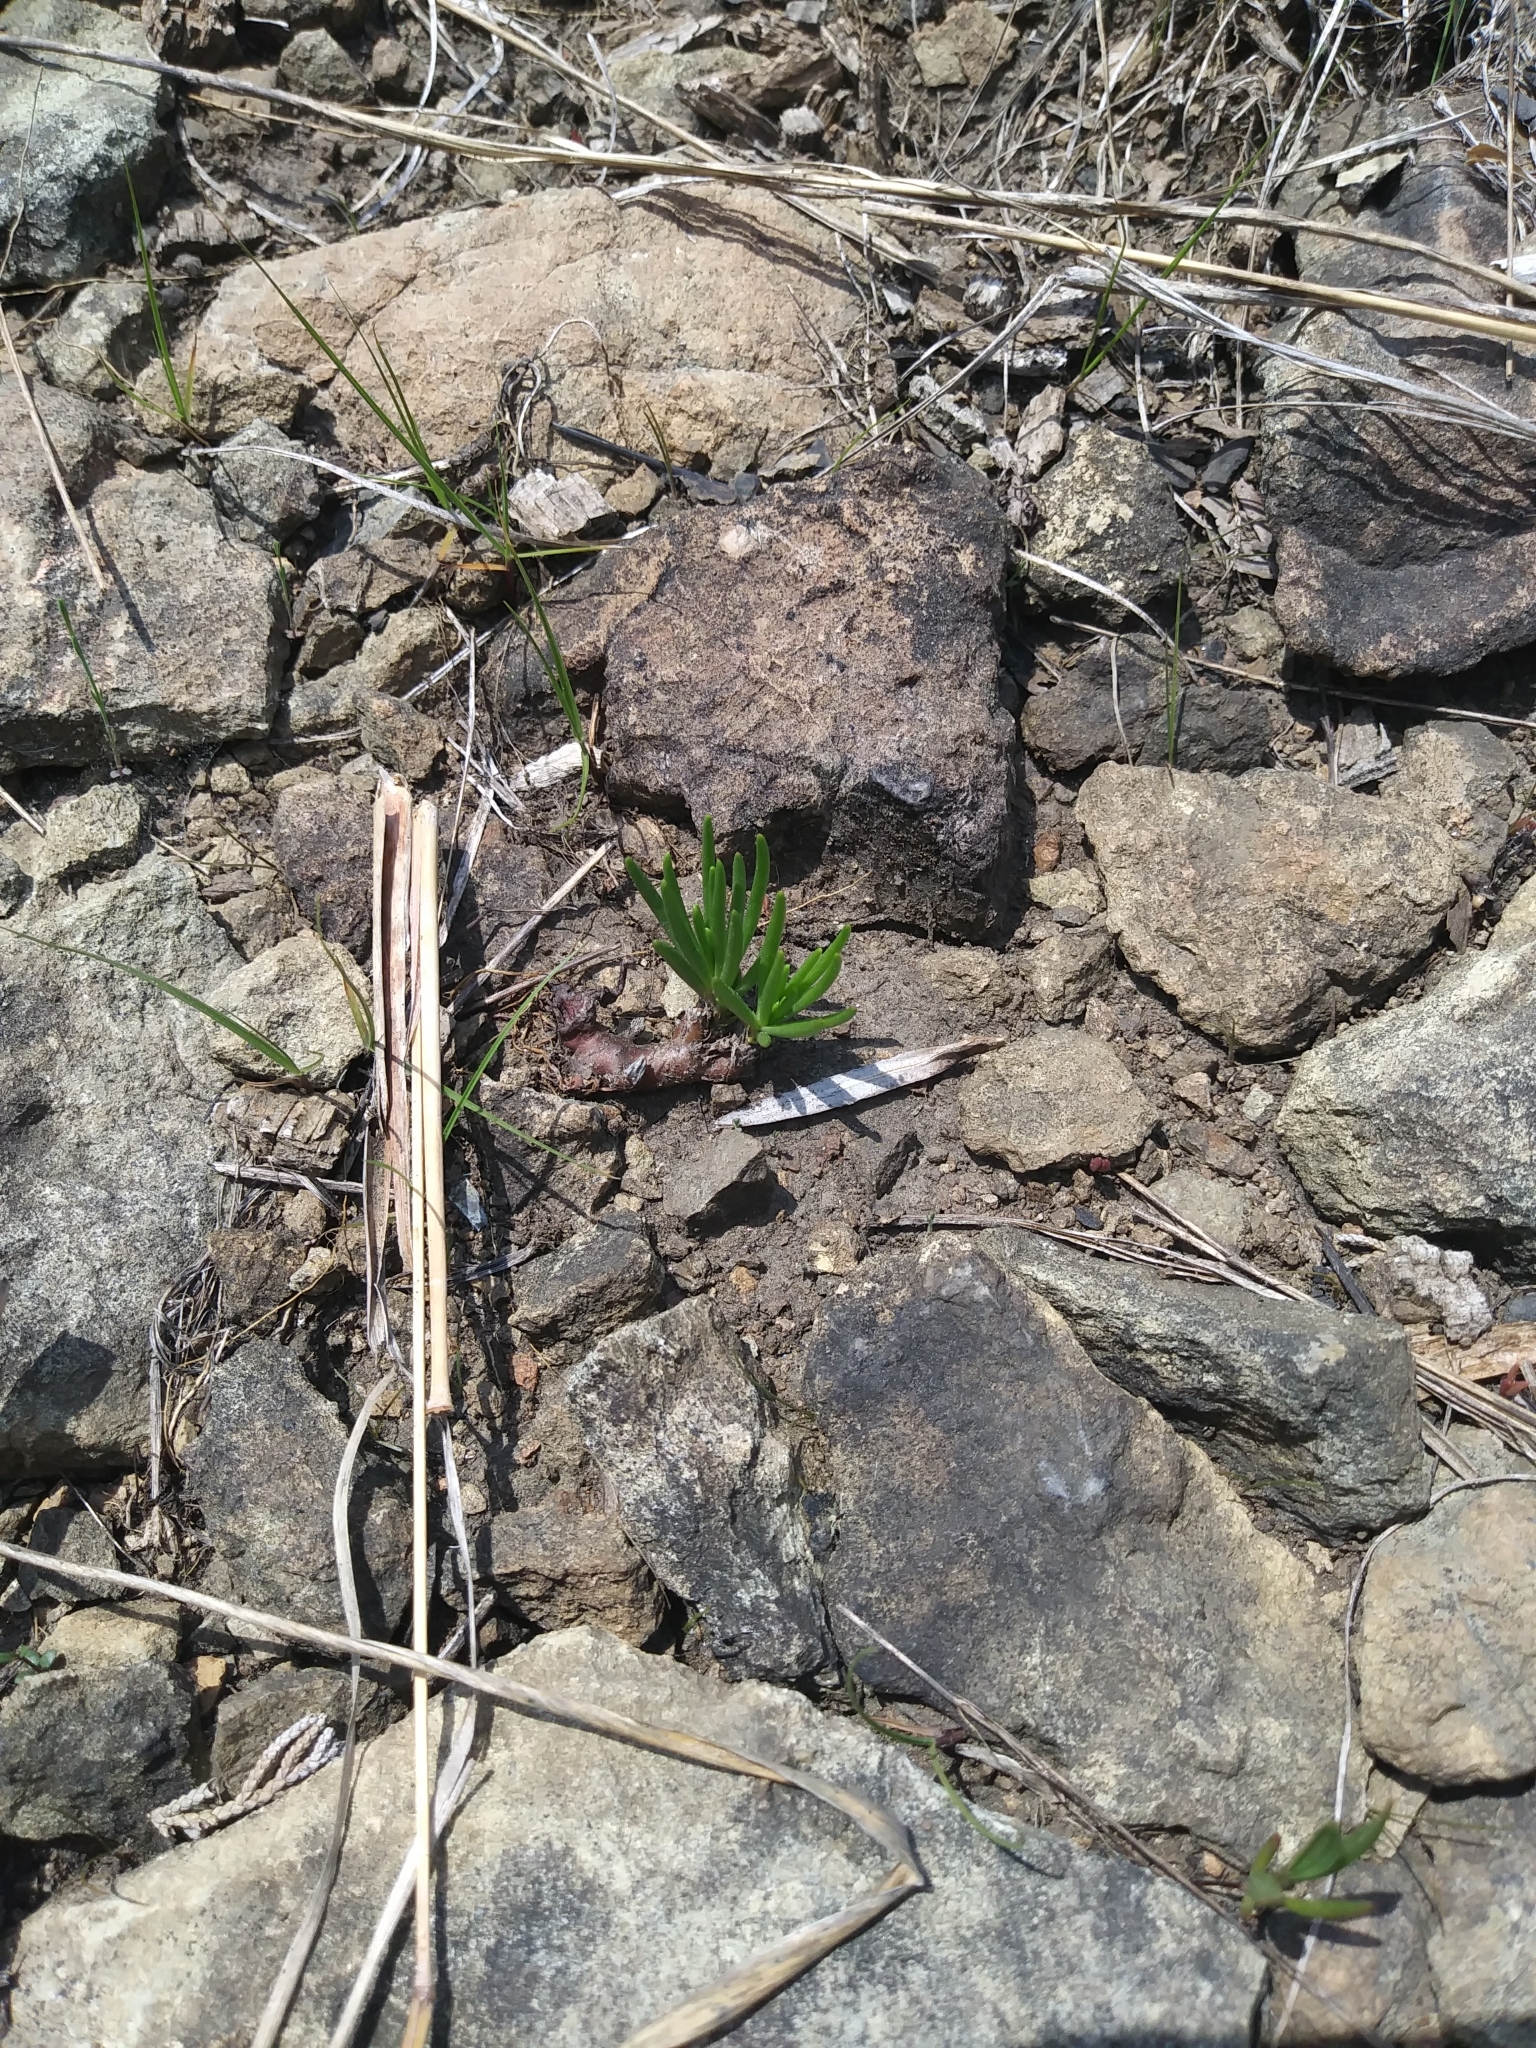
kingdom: Plantae
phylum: Tracheophyta
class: Magnoliopsida
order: Caryophyllales
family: Montiaceae
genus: Phemeranthus
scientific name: Phemeranthus teretifolius
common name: Quill fameflower
